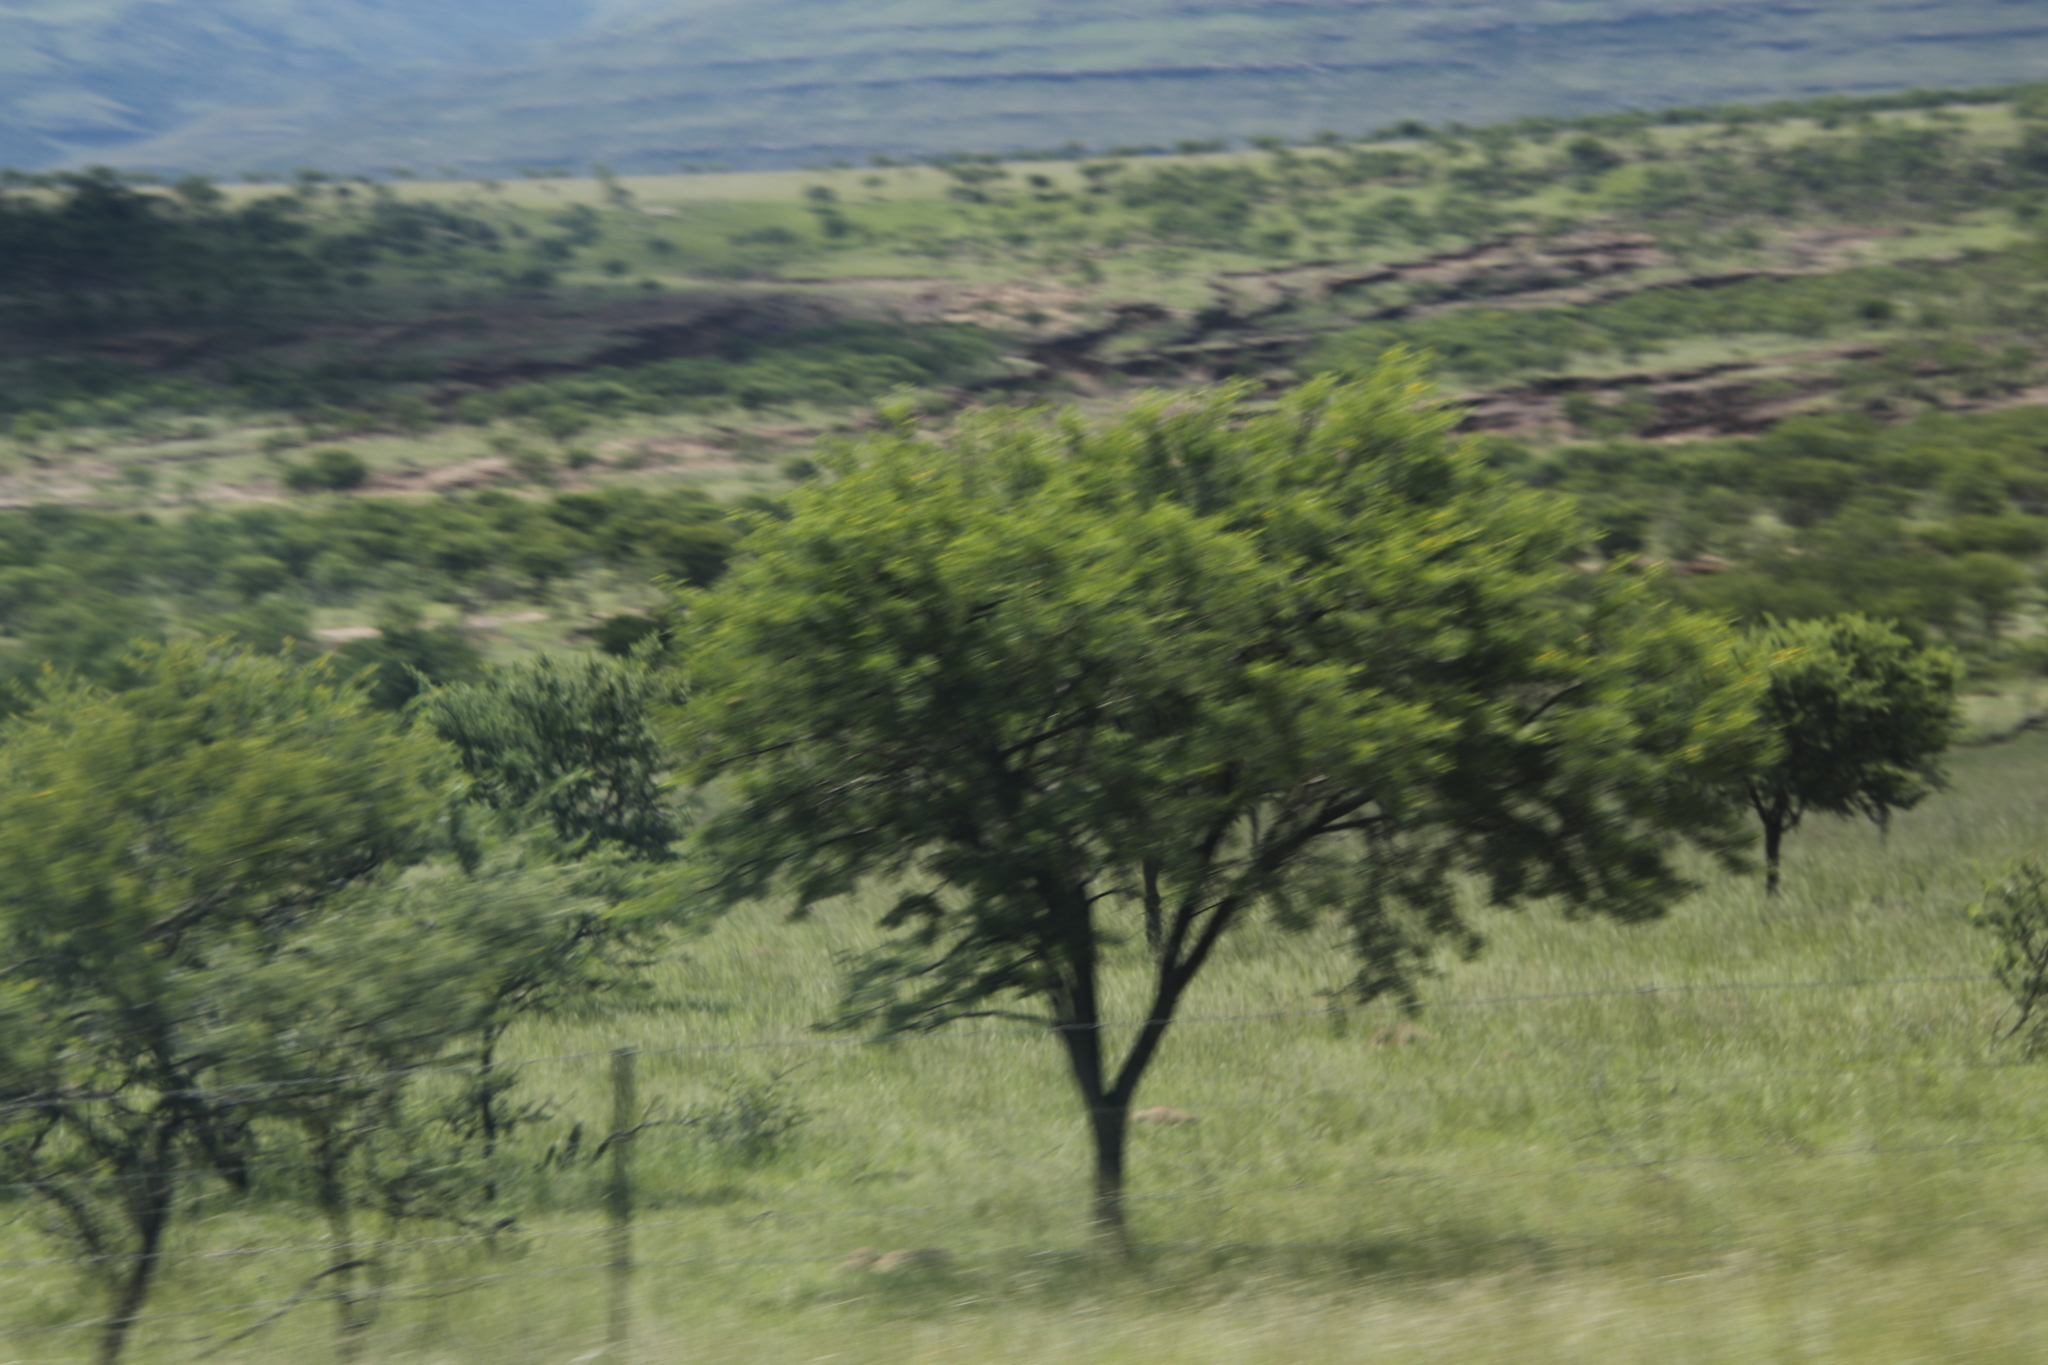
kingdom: Plantae
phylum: Tracheophyta
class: Magnoliopsida
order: Fabales
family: Fabaceae
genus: Vachellia
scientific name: Vachellia karroo
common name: Sweet thorn
